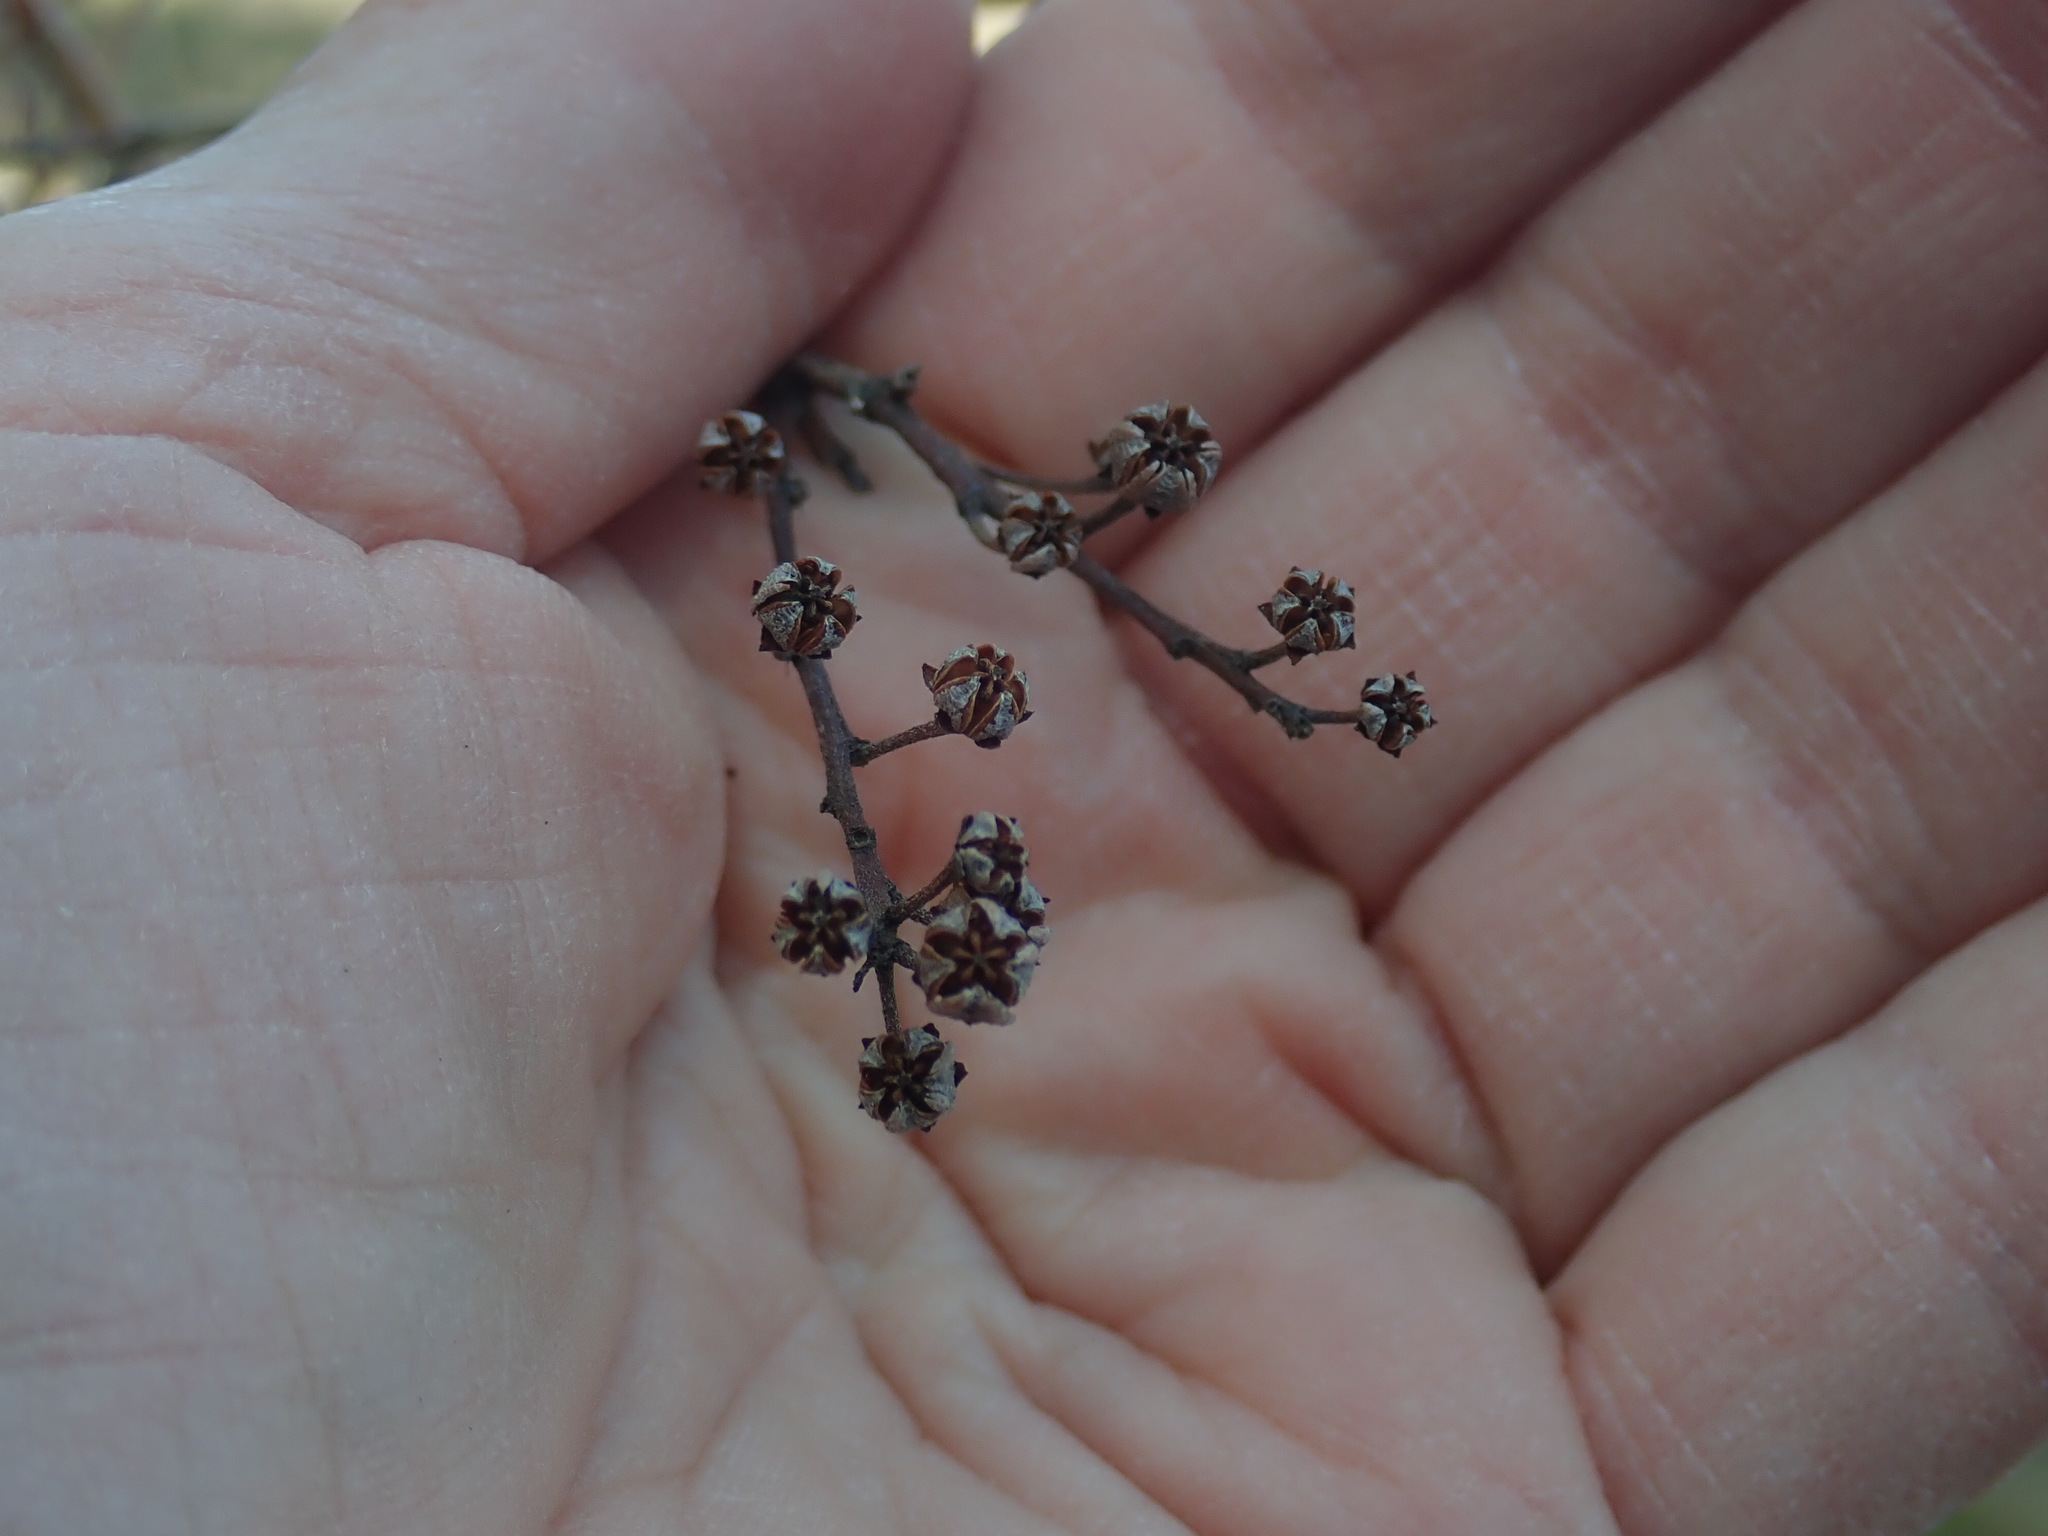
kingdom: Plantae
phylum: Tracheophyta
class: Magnoliopsida
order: Ericales
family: Ericaceae
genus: Lyonia
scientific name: Lyonia ligustrina
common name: Maleberry
